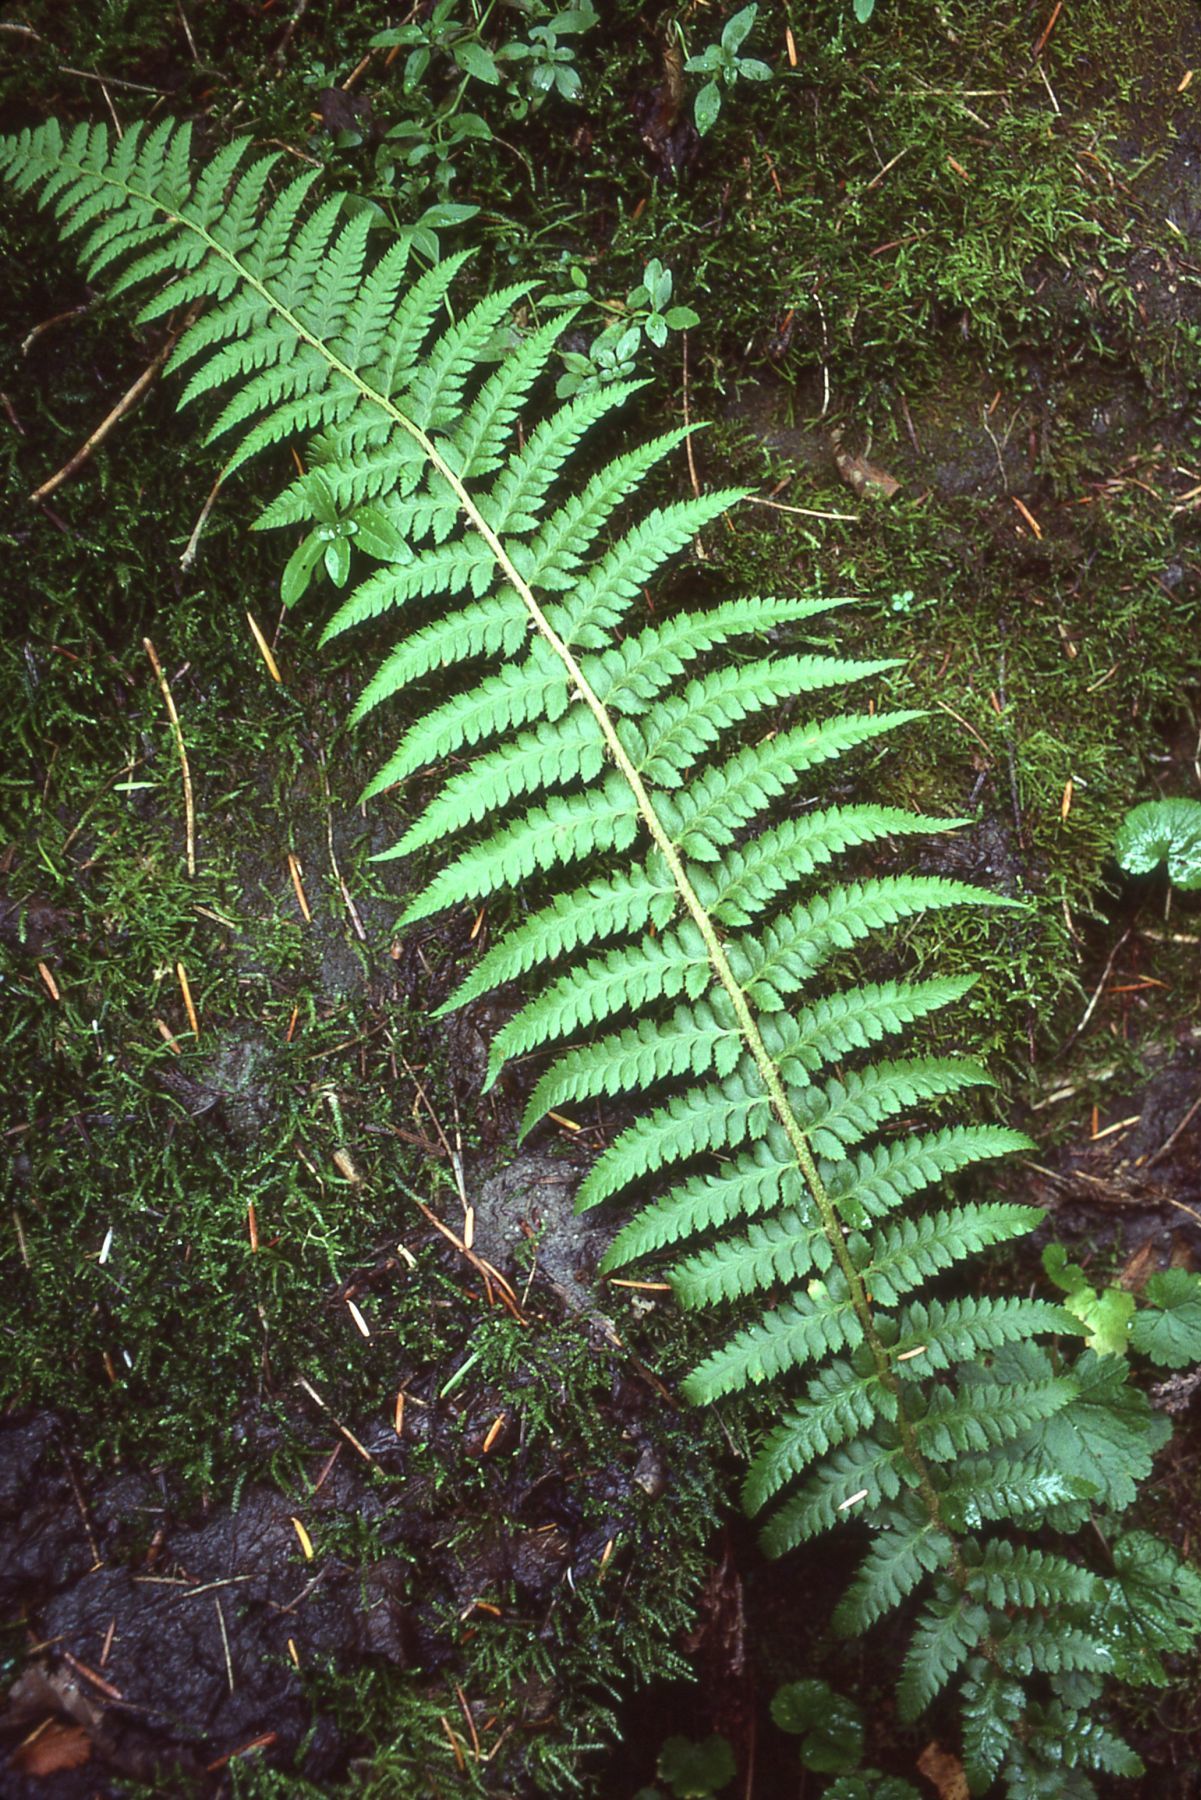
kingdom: Plantae
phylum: Tracheophyta
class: Polypodiopsida
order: Polypodiales
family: Dryopteridaceae
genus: Polystichum
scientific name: Polystichum andersonii
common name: Anderson's holly fern
